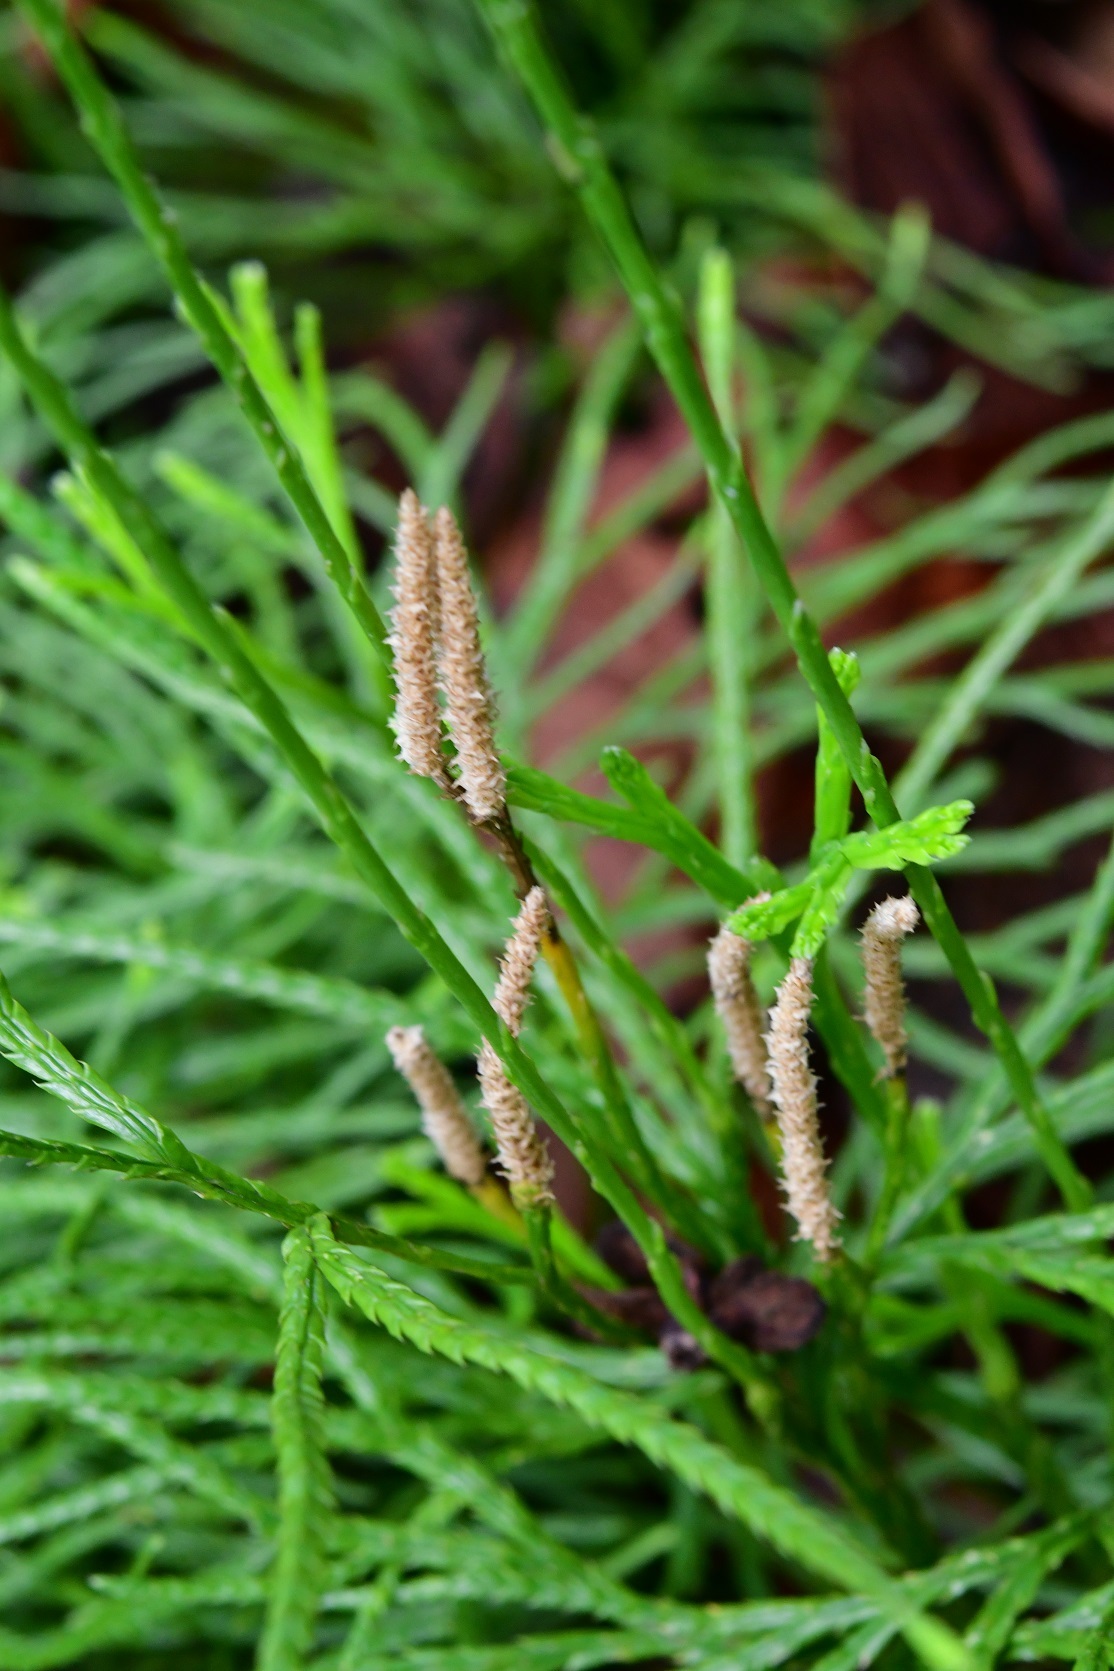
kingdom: Plantae
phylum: Tracheophyta
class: Lycopodiopsida
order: Lycopodiales
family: Lycopodiaceae
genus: Diphasiastrum
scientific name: Diphasiastrum thyoides
